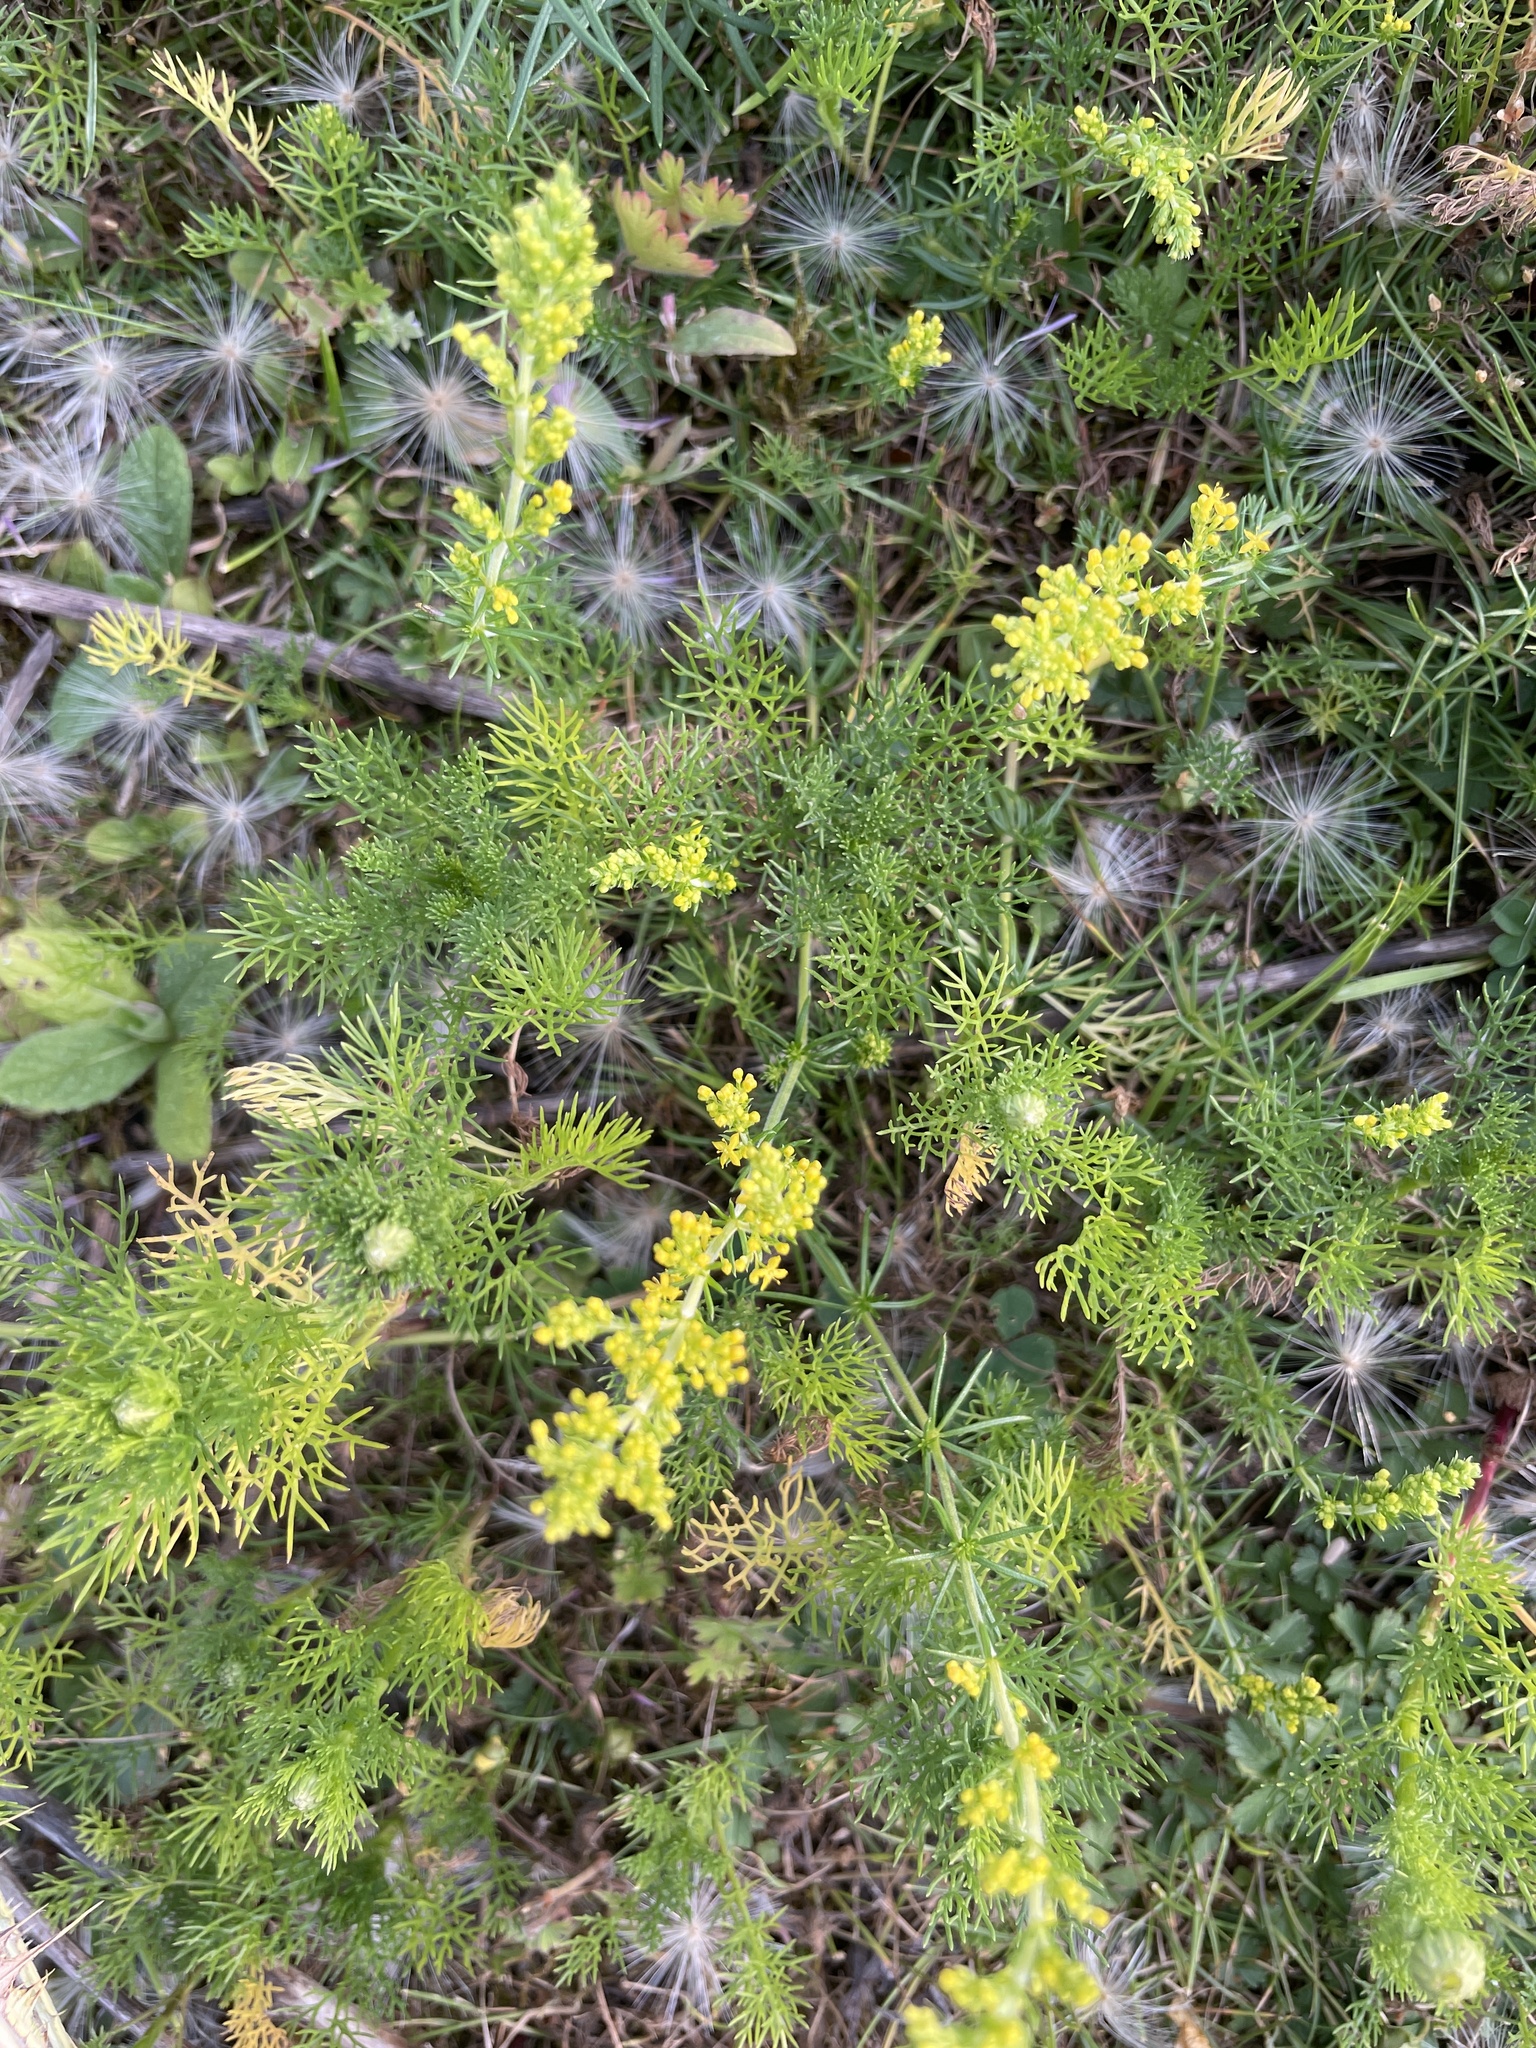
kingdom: Plantae
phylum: Tracheophyta
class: Magnoliopsida
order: Gentianales
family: Rubiaceae
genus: Galium
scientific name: Galium verum
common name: Lady's bedstraw
